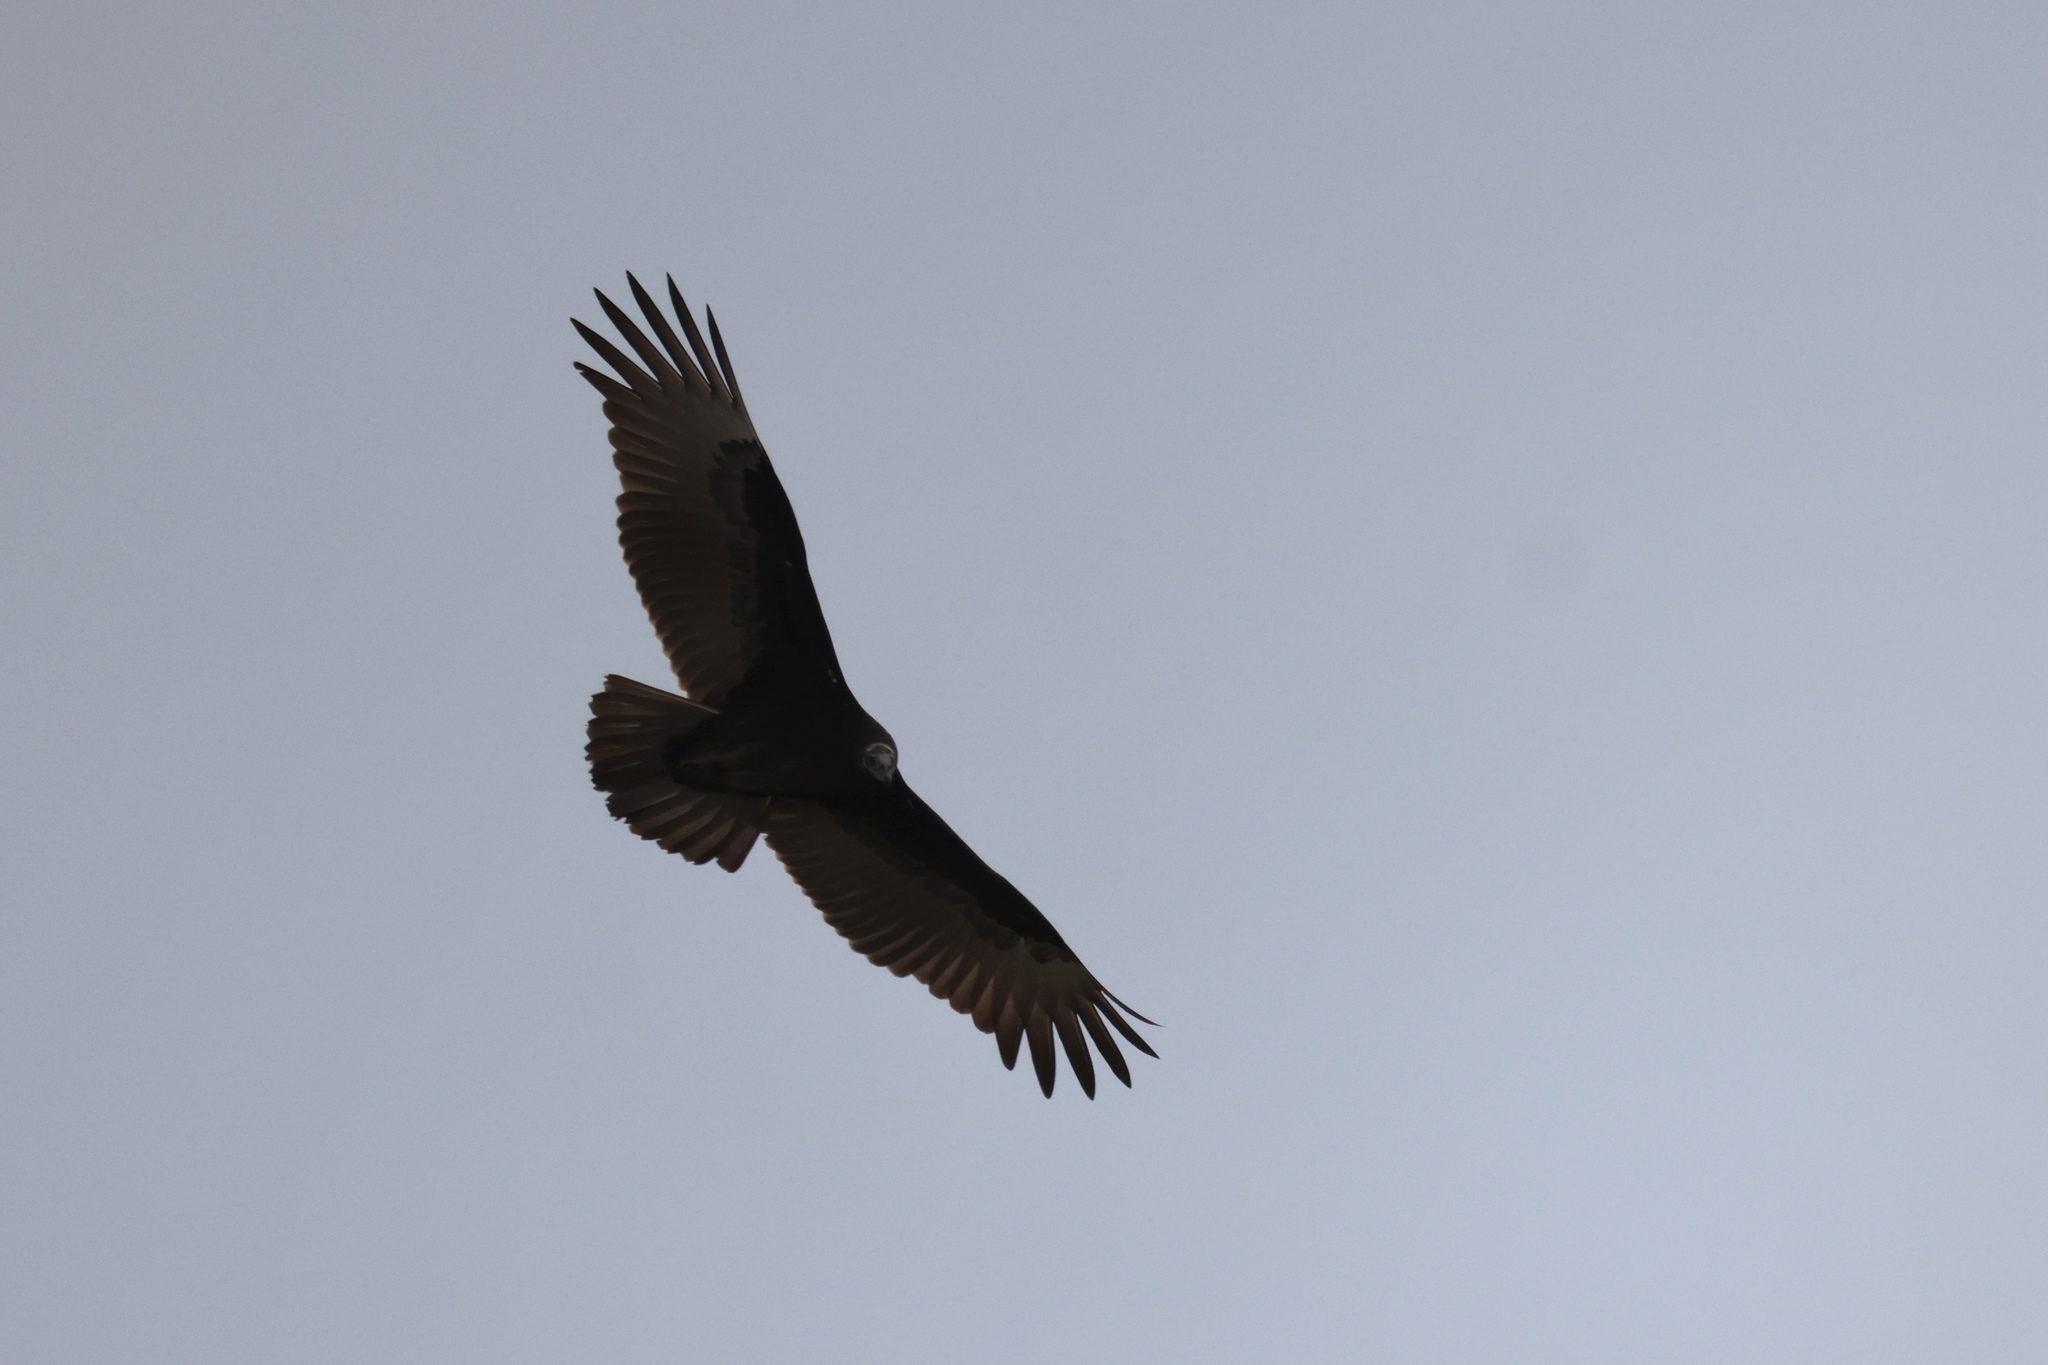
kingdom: Animalia
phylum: Chordata
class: Aves
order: Accipitriformes
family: Cathartidae
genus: Cathartes
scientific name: Cathartes aura
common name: Turkey vulture
